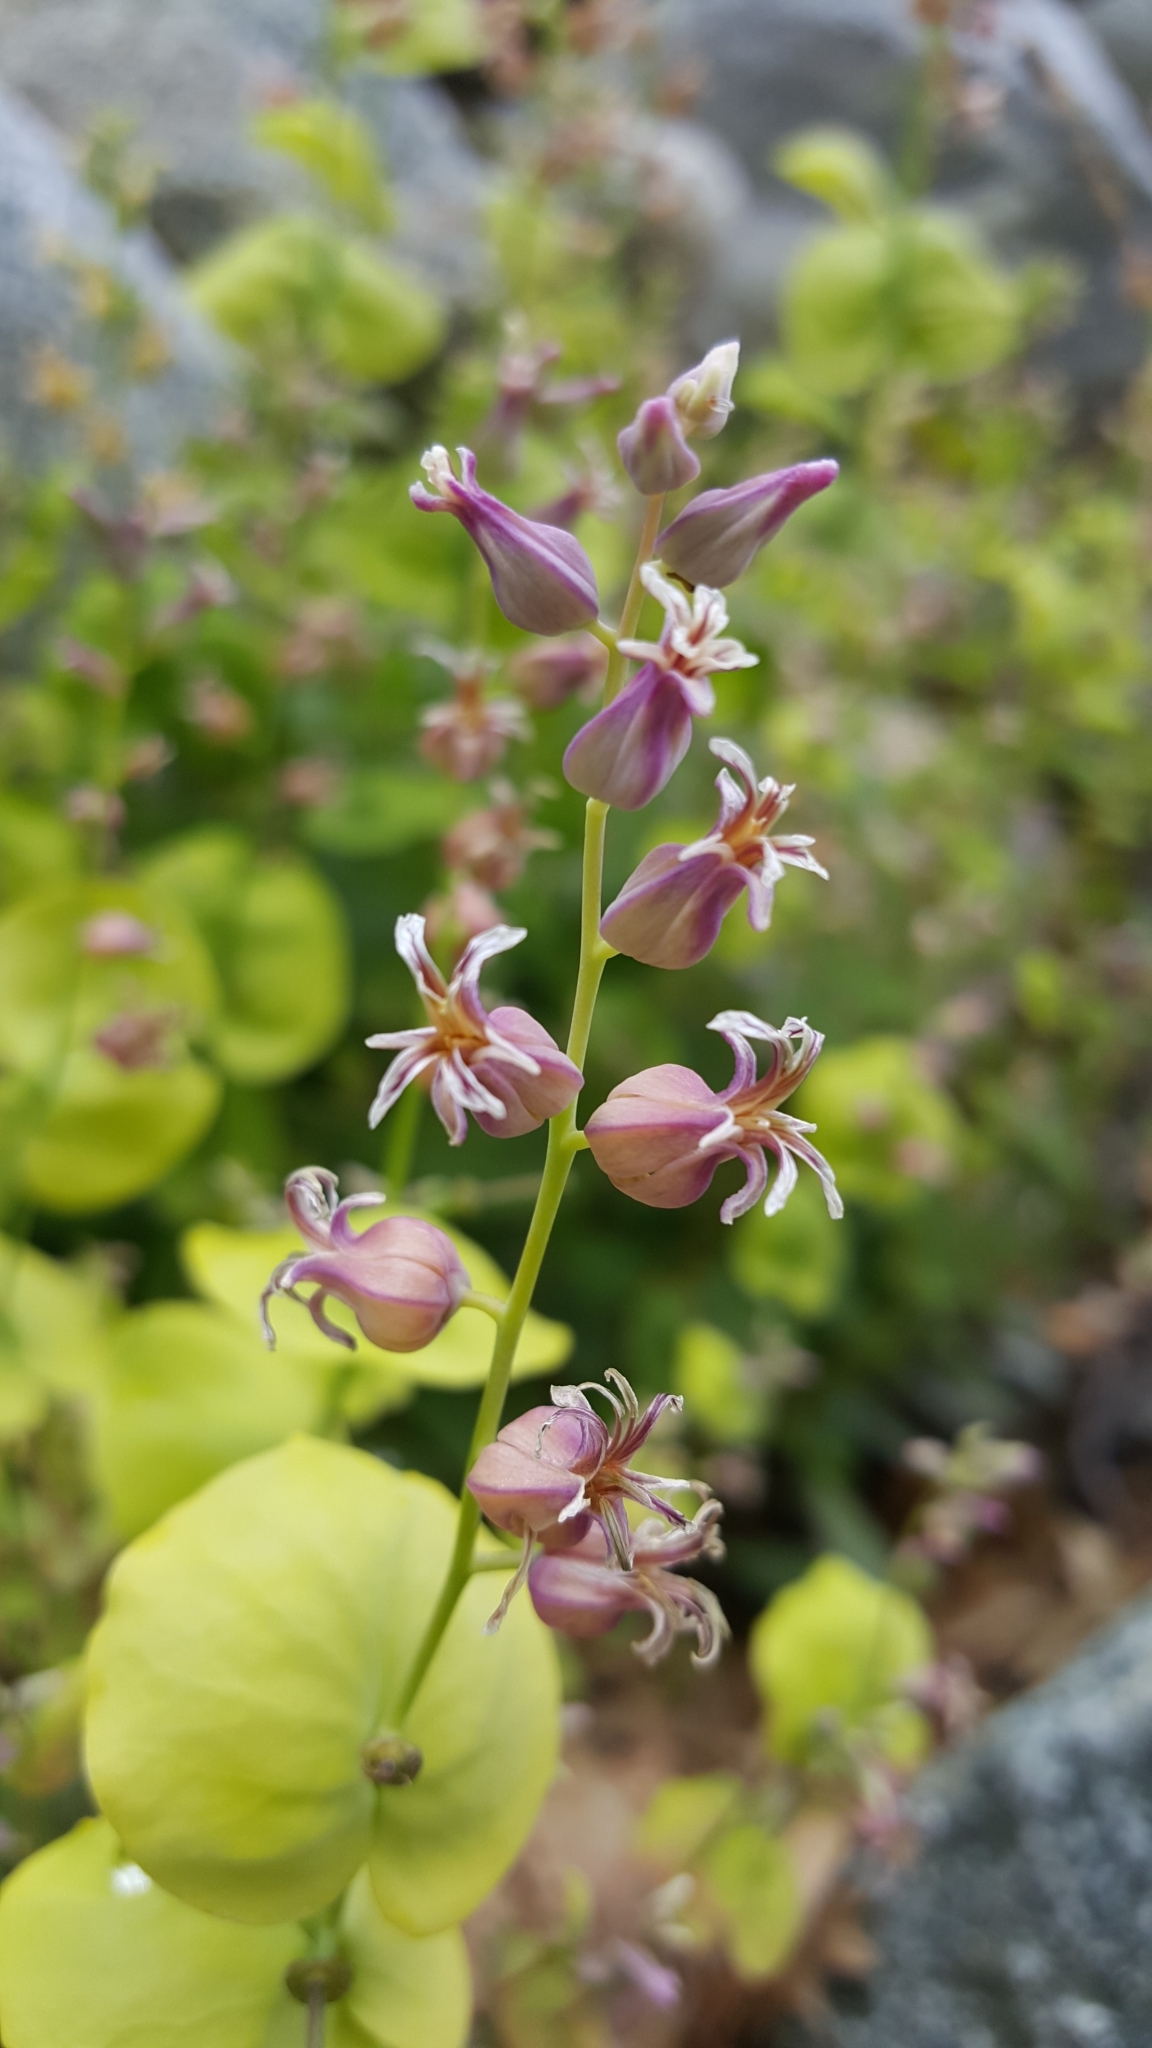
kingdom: Plantae
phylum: Tracheophyta
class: Magnoliopsida
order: Brassicales
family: Brassicaceae
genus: Streptanthus
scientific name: Streptanthus tortuosus
